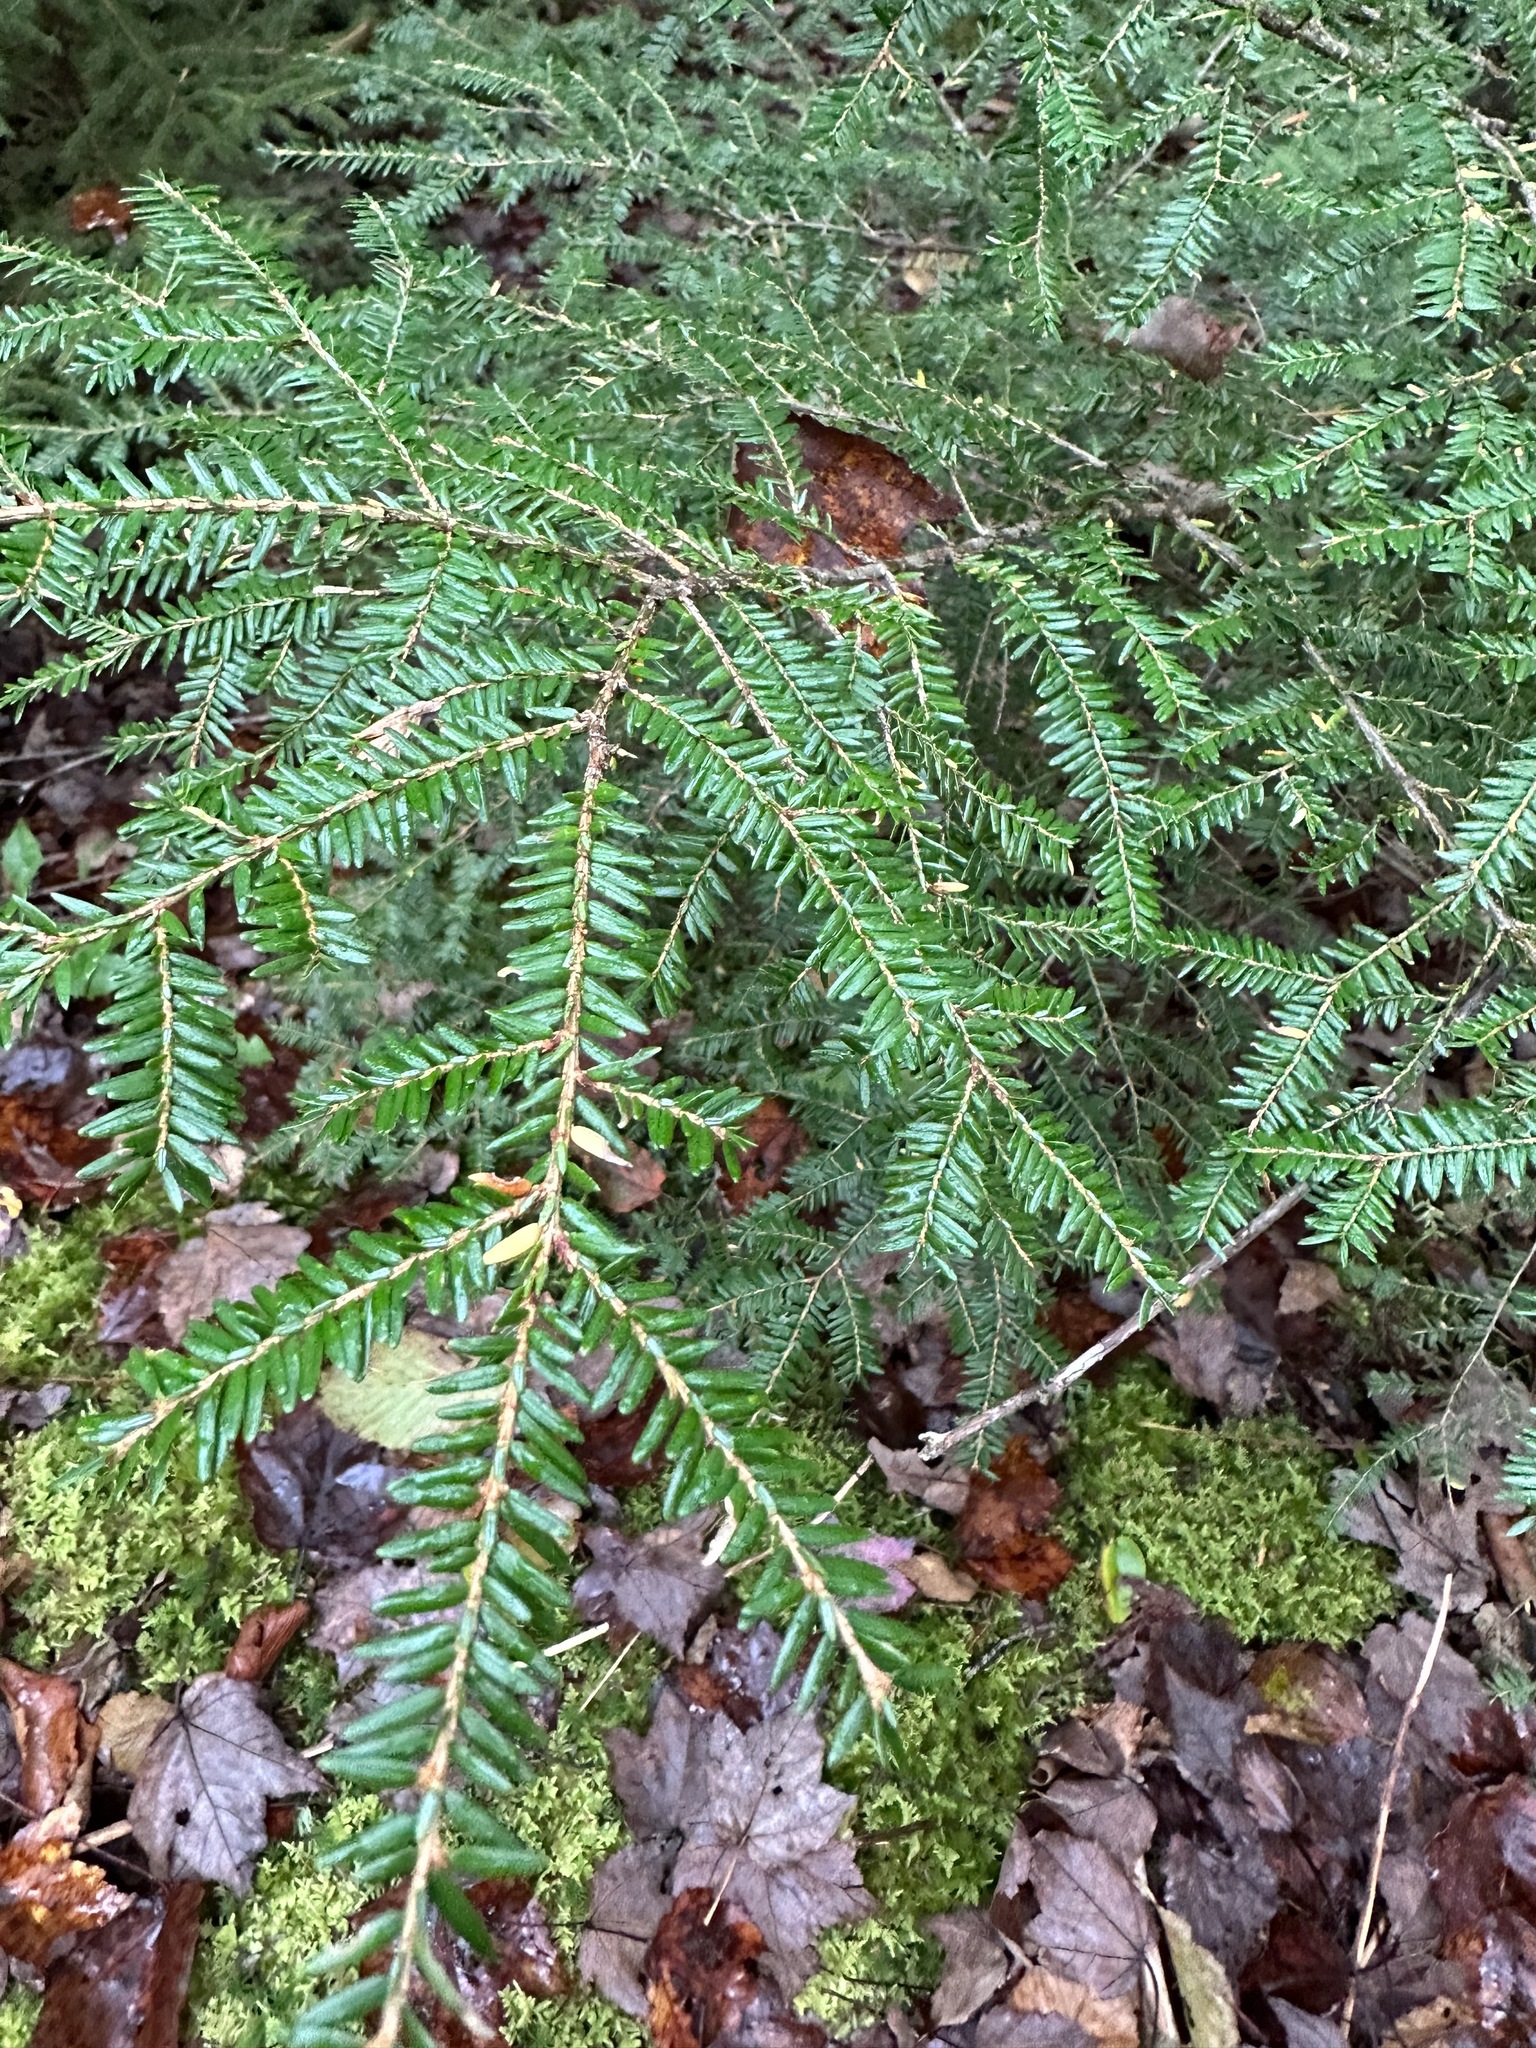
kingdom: Plantae
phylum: Tracheophyta
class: Pinopsida
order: Pinales
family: Pinaceae
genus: Tsuga
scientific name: Tsuga canadensis
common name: Eastern hemlock
